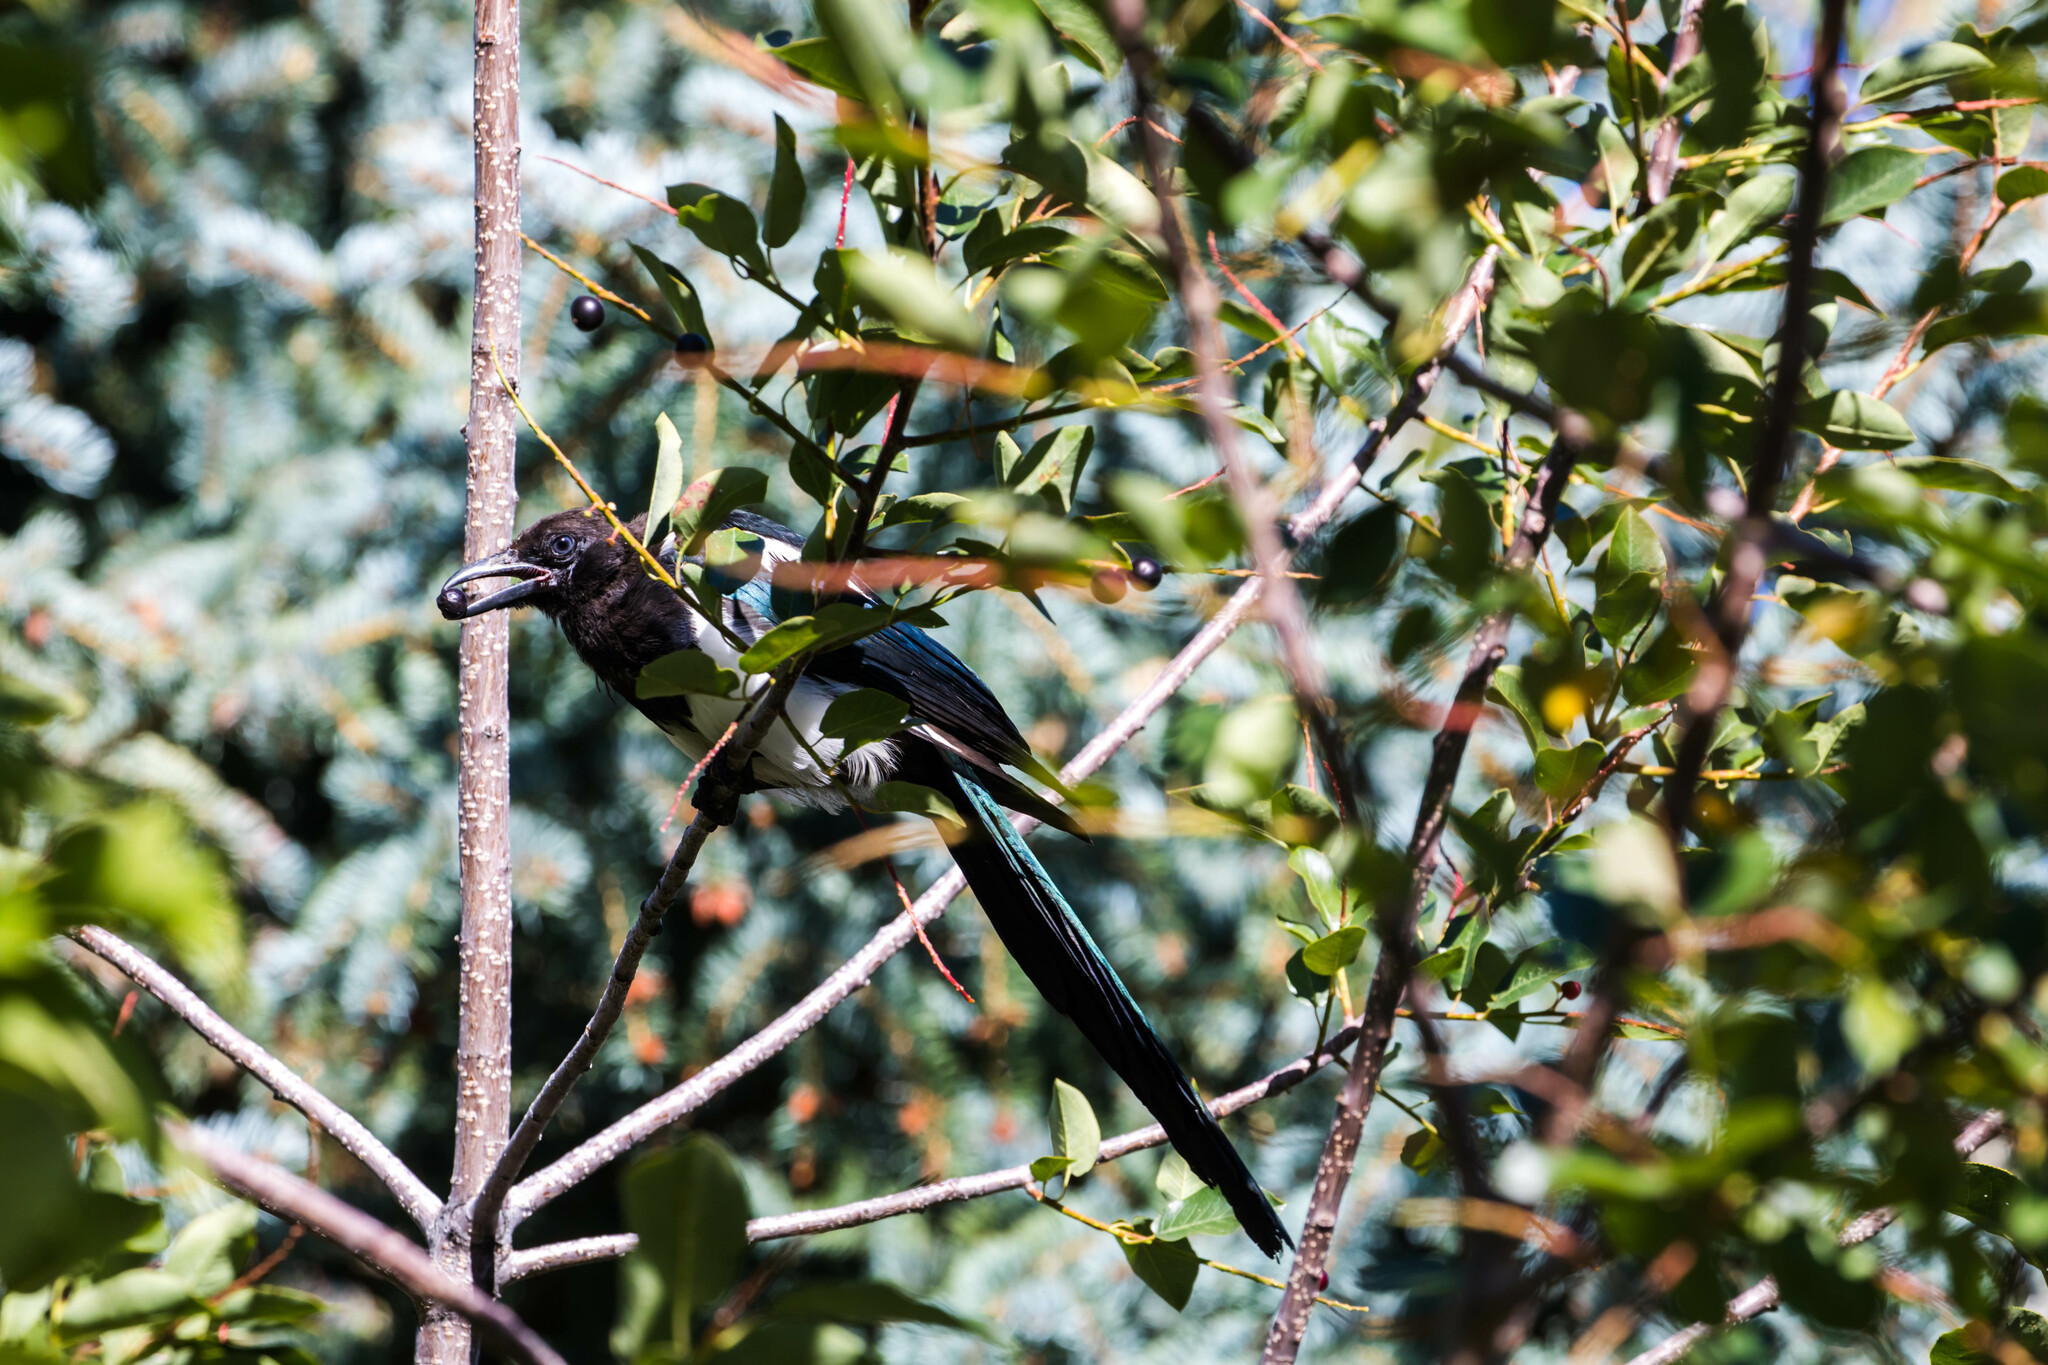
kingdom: Animalia
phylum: Chordata
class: Aves
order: Passeriformes
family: Corvidae
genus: Pica
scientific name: Pica hudsonia
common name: Black-billed magpie
